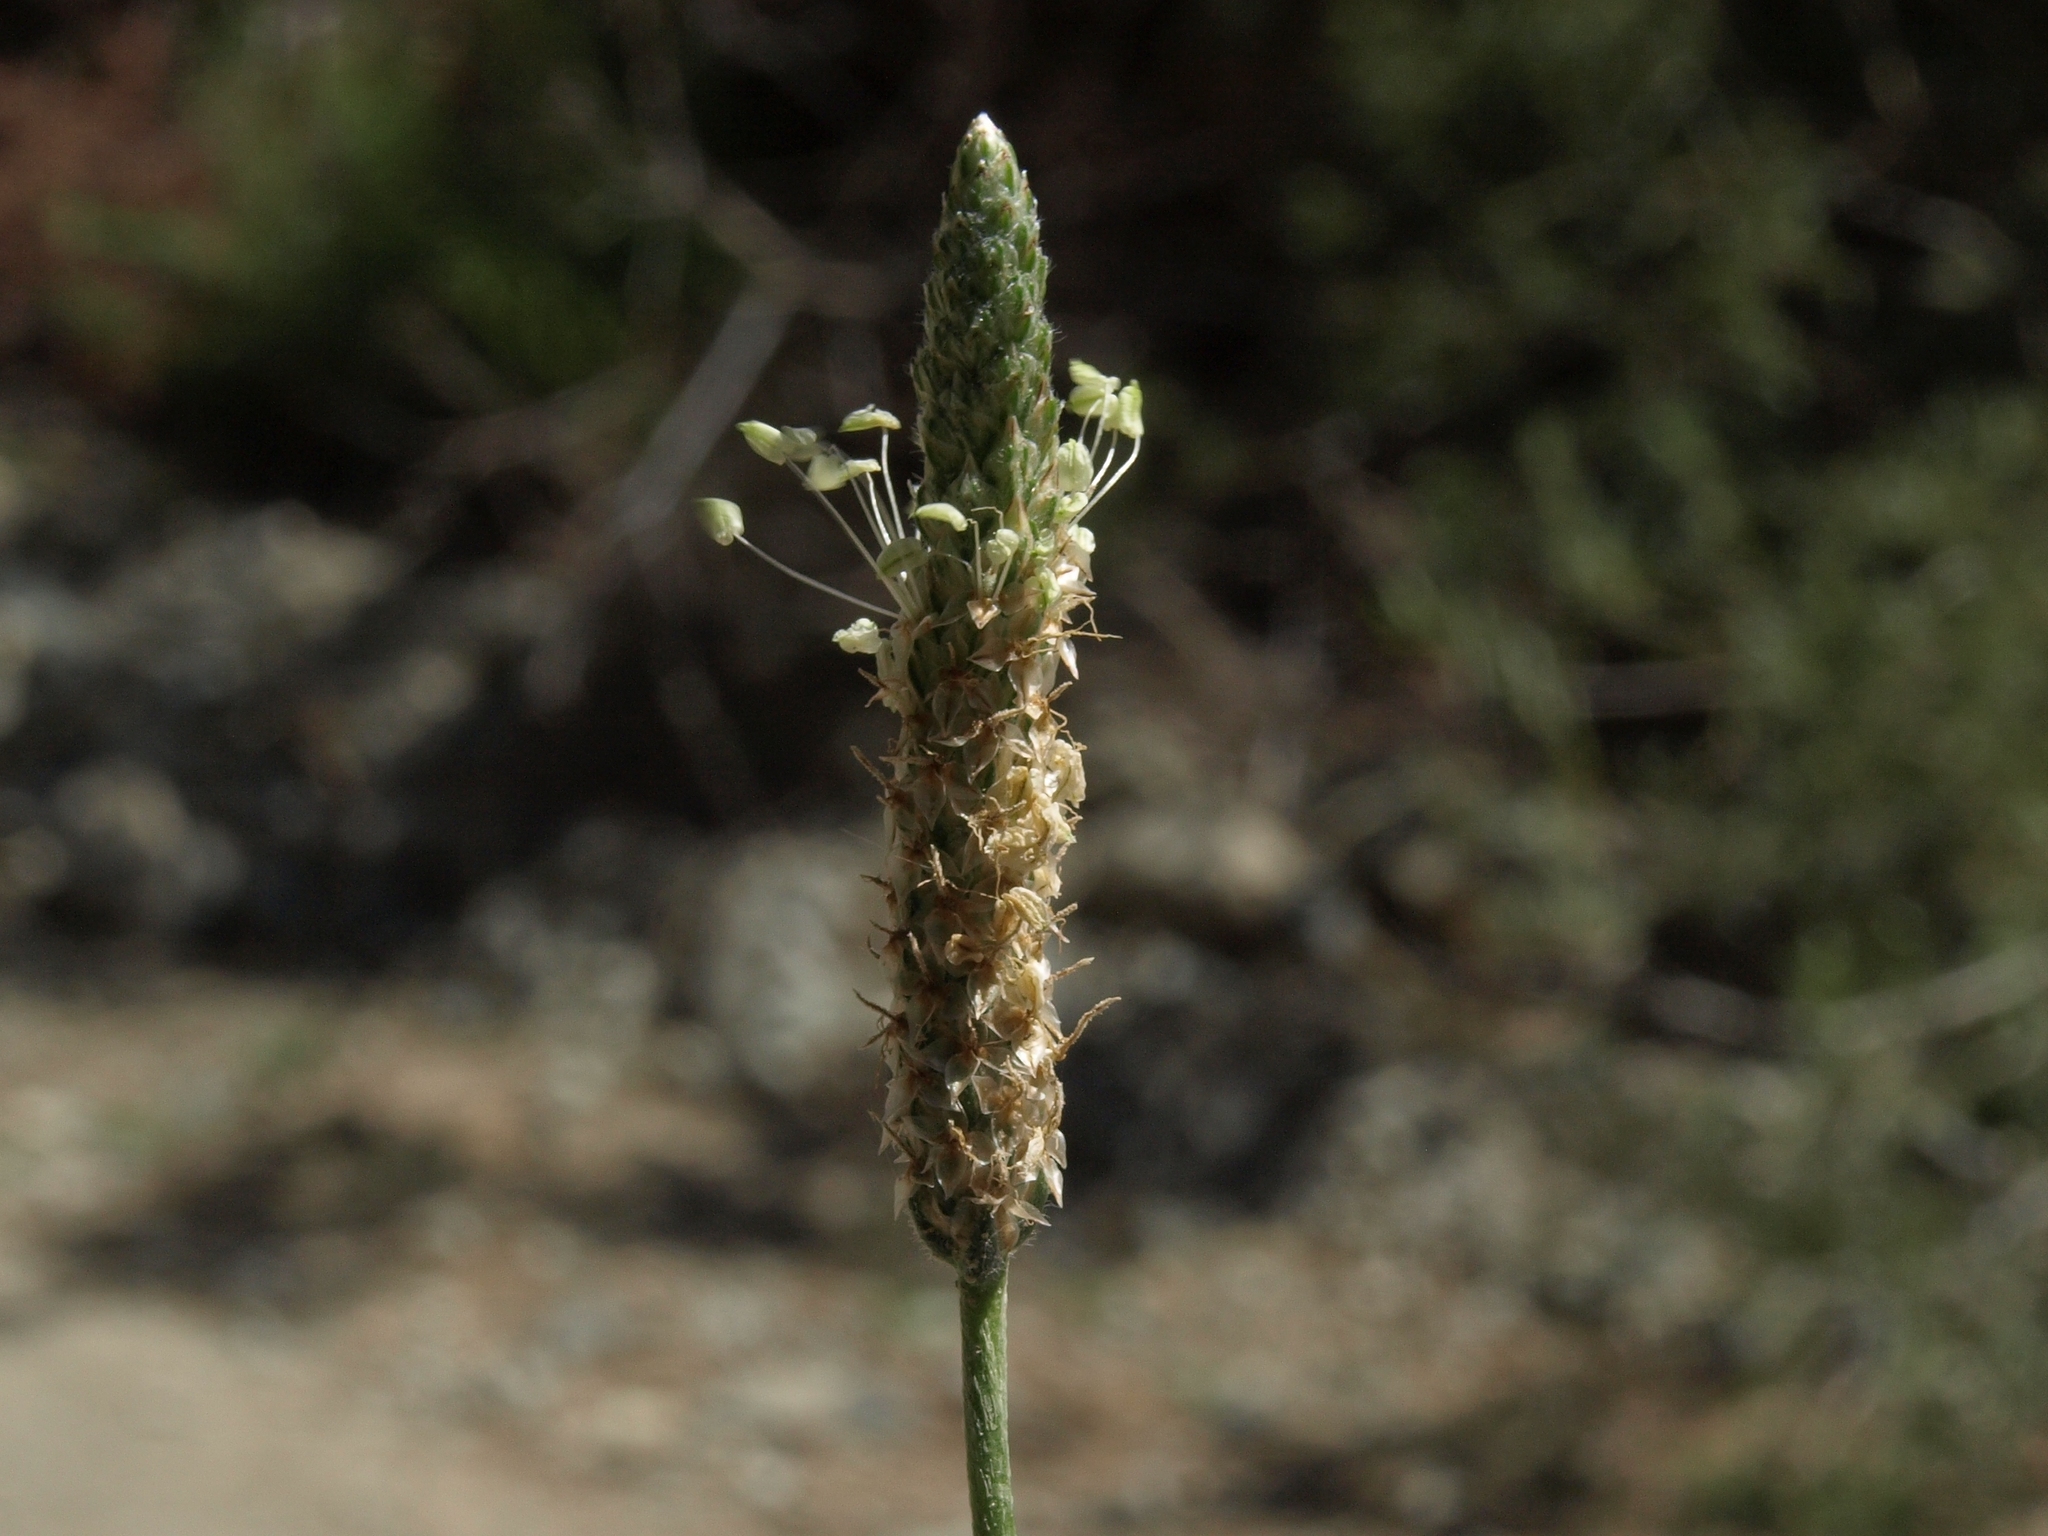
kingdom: Plantae
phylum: Tracheophyta
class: Magnoliopsida
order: Lamiales
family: Plantaginaceae
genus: Plantago
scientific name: Plantago lanceolata
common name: Ribwort plantain
